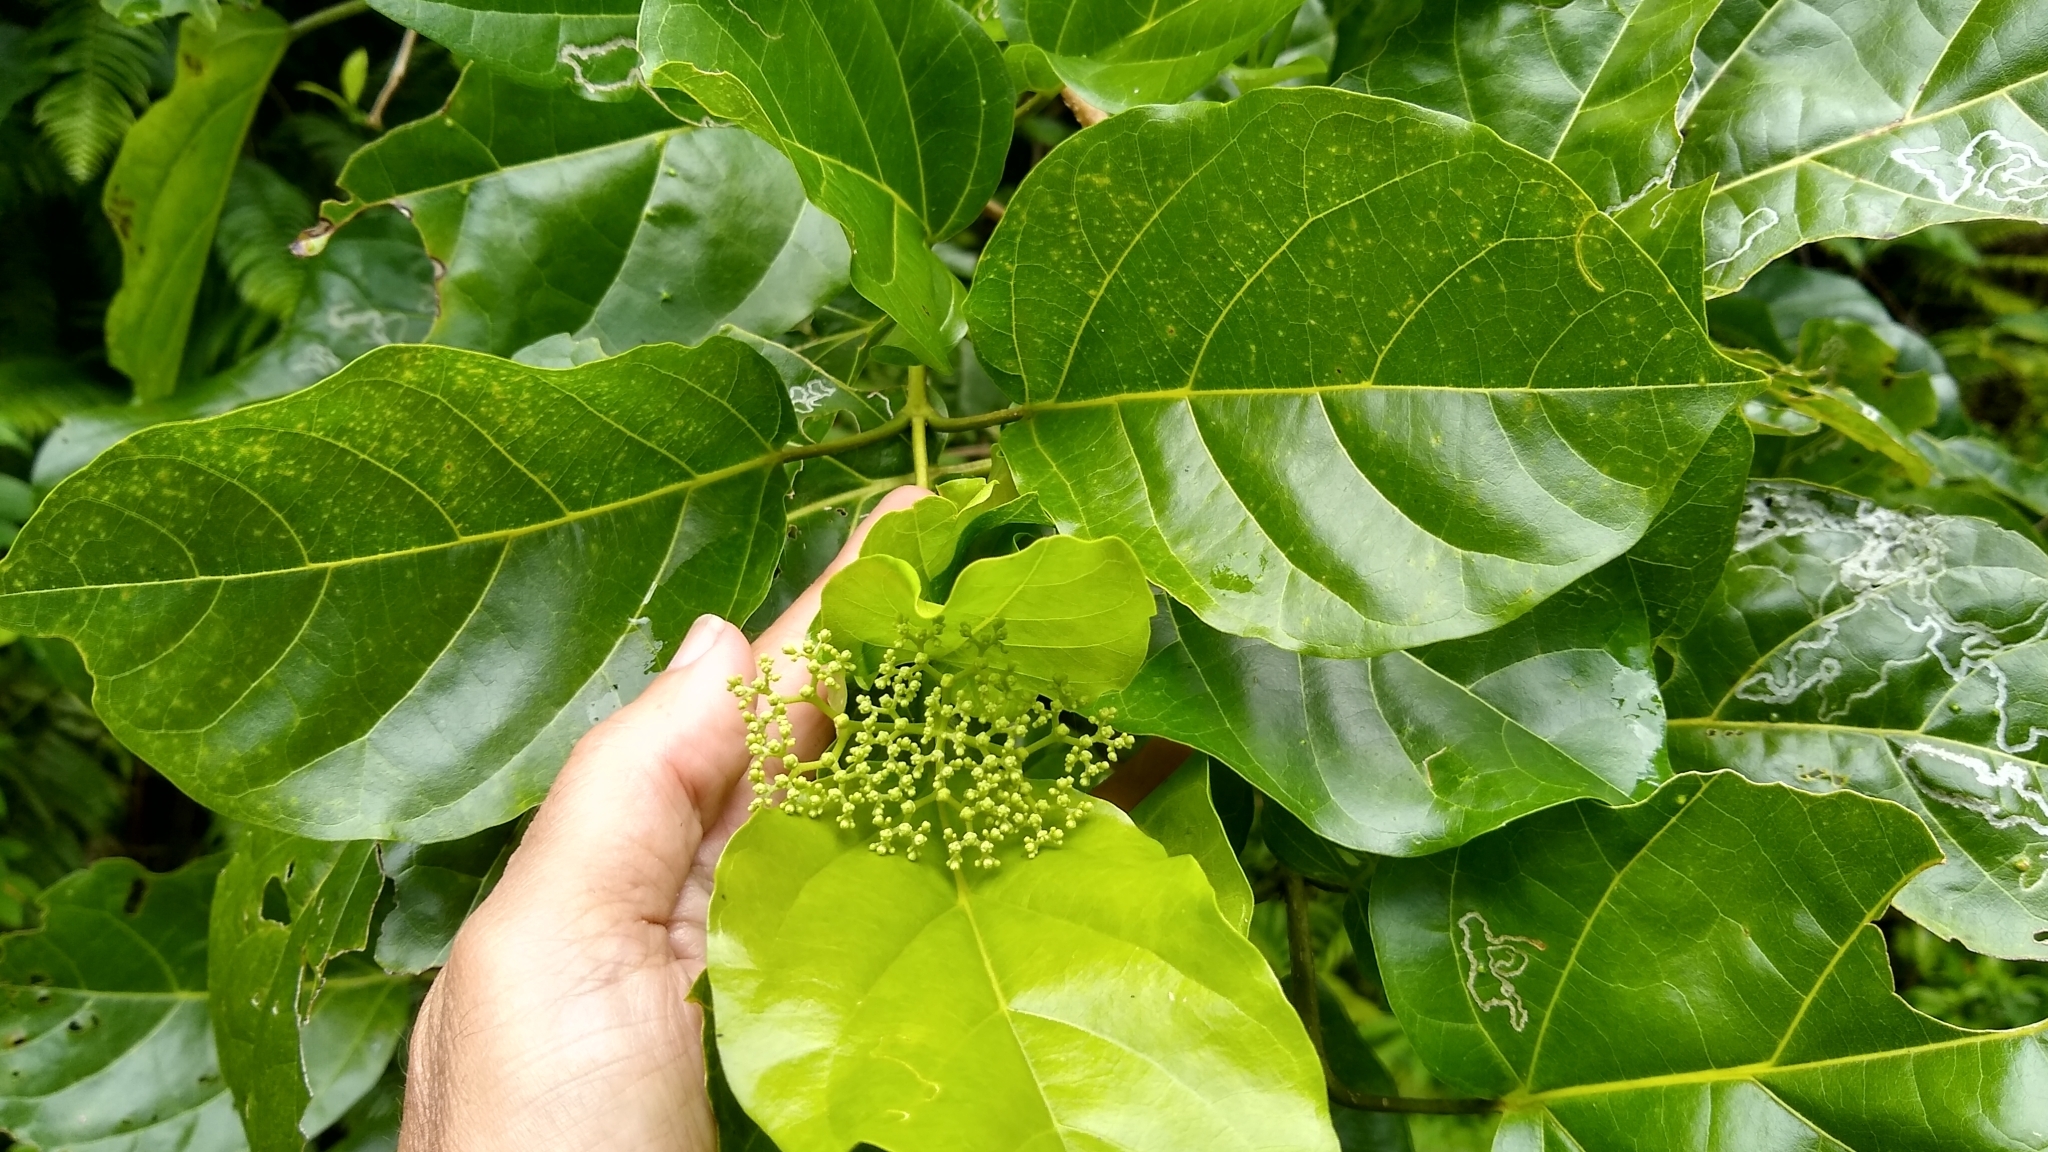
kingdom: Plantae
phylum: Tracheophyta
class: Magnoliopsida
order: Lamiales
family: Lamiaceae
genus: Premna
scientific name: Premna serratifolia
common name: Bastard guelder
